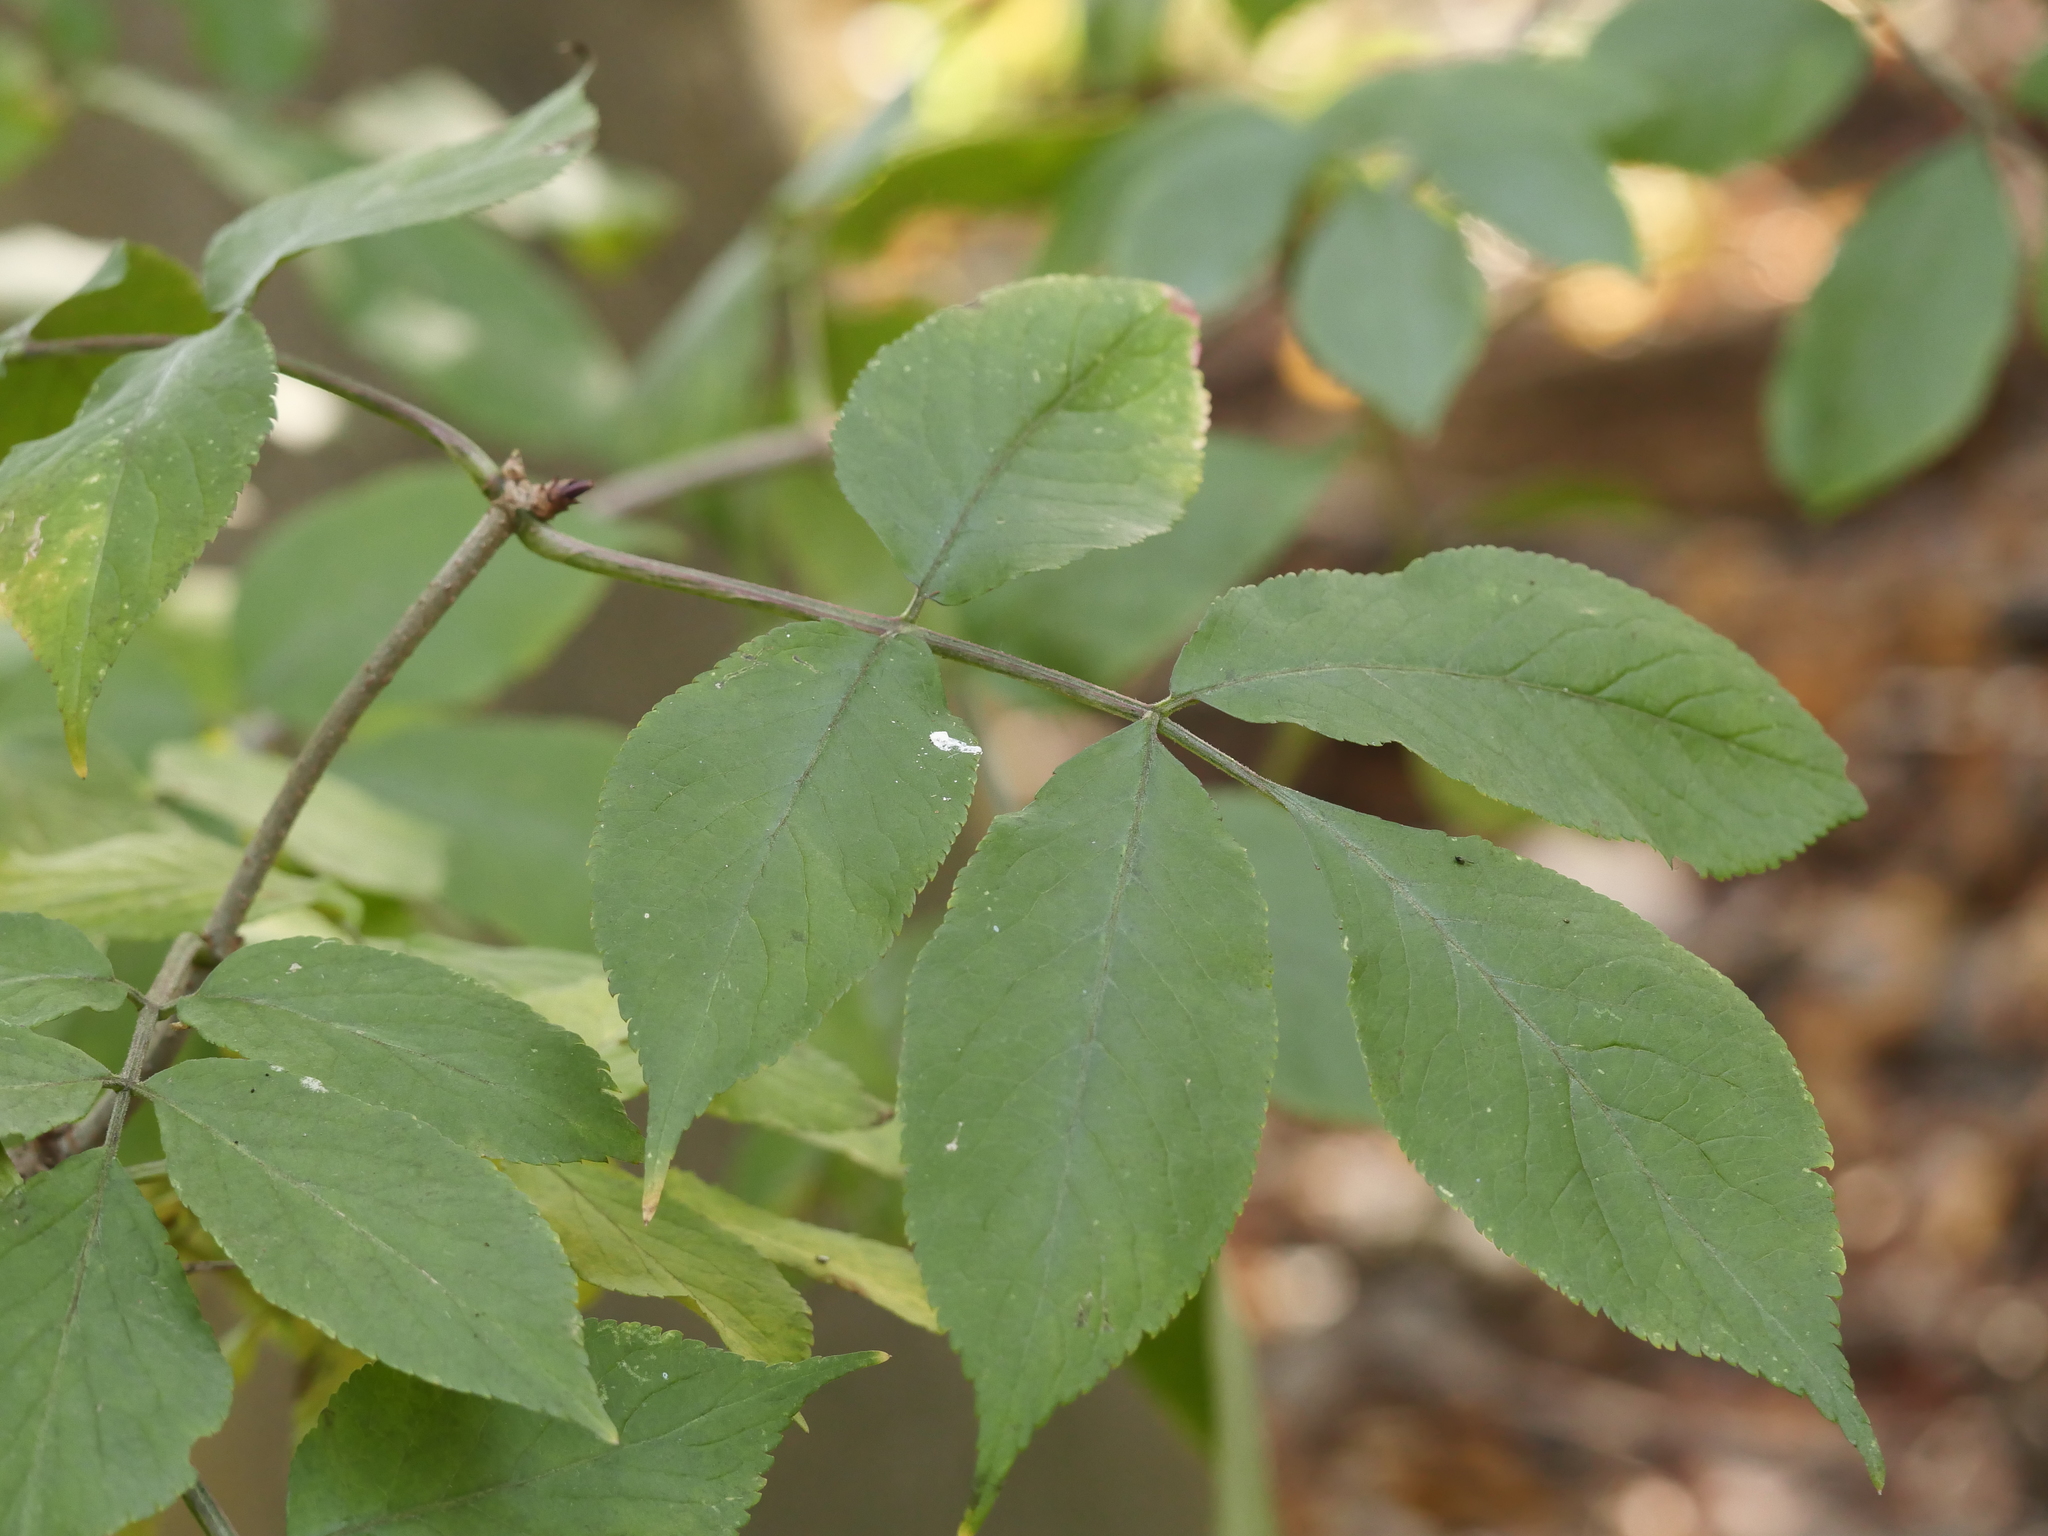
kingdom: Plantae
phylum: Tracheophyta
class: Magnoliopsida
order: Dipsacales
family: Viburnaceae
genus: Sambucus
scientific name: Sambucus nigra
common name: Elder
